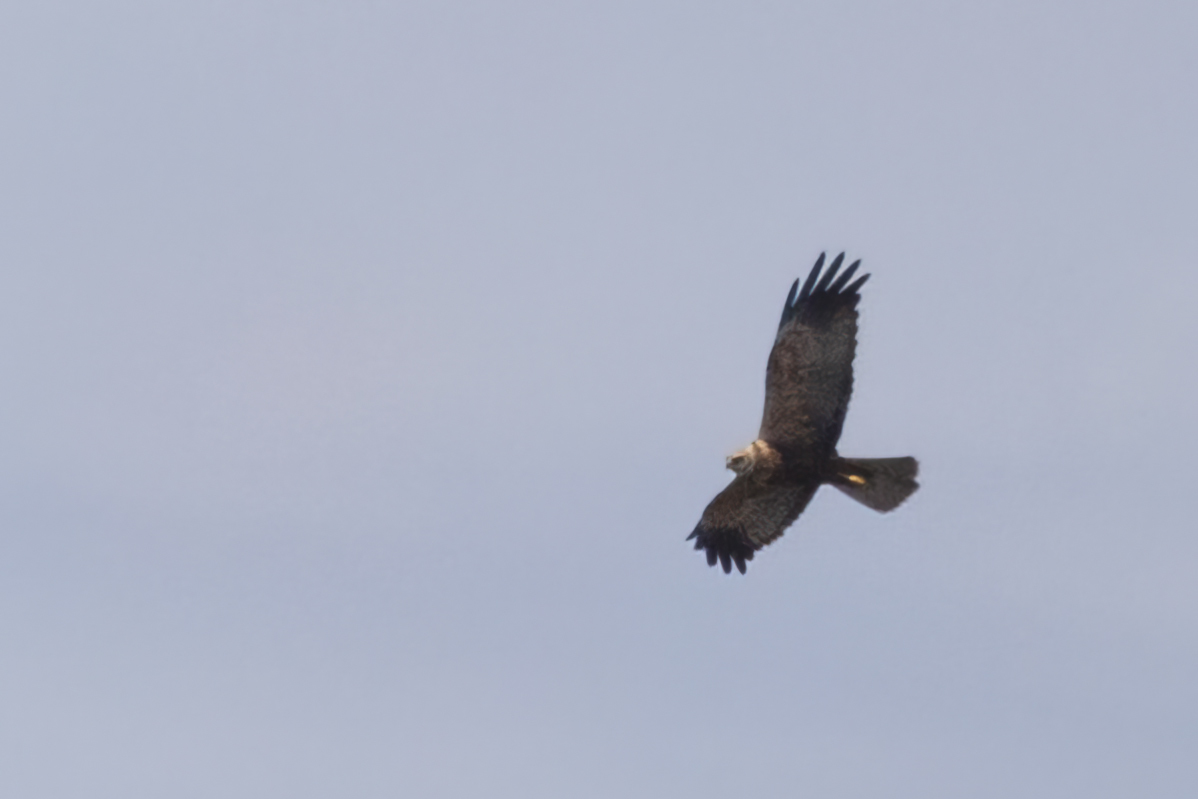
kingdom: Animalia
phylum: Chordata
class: Aves
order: Accipitriformes
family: Accipitridae
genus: Circus
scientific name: Circus aeruginosus
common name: Western marsh harrier
